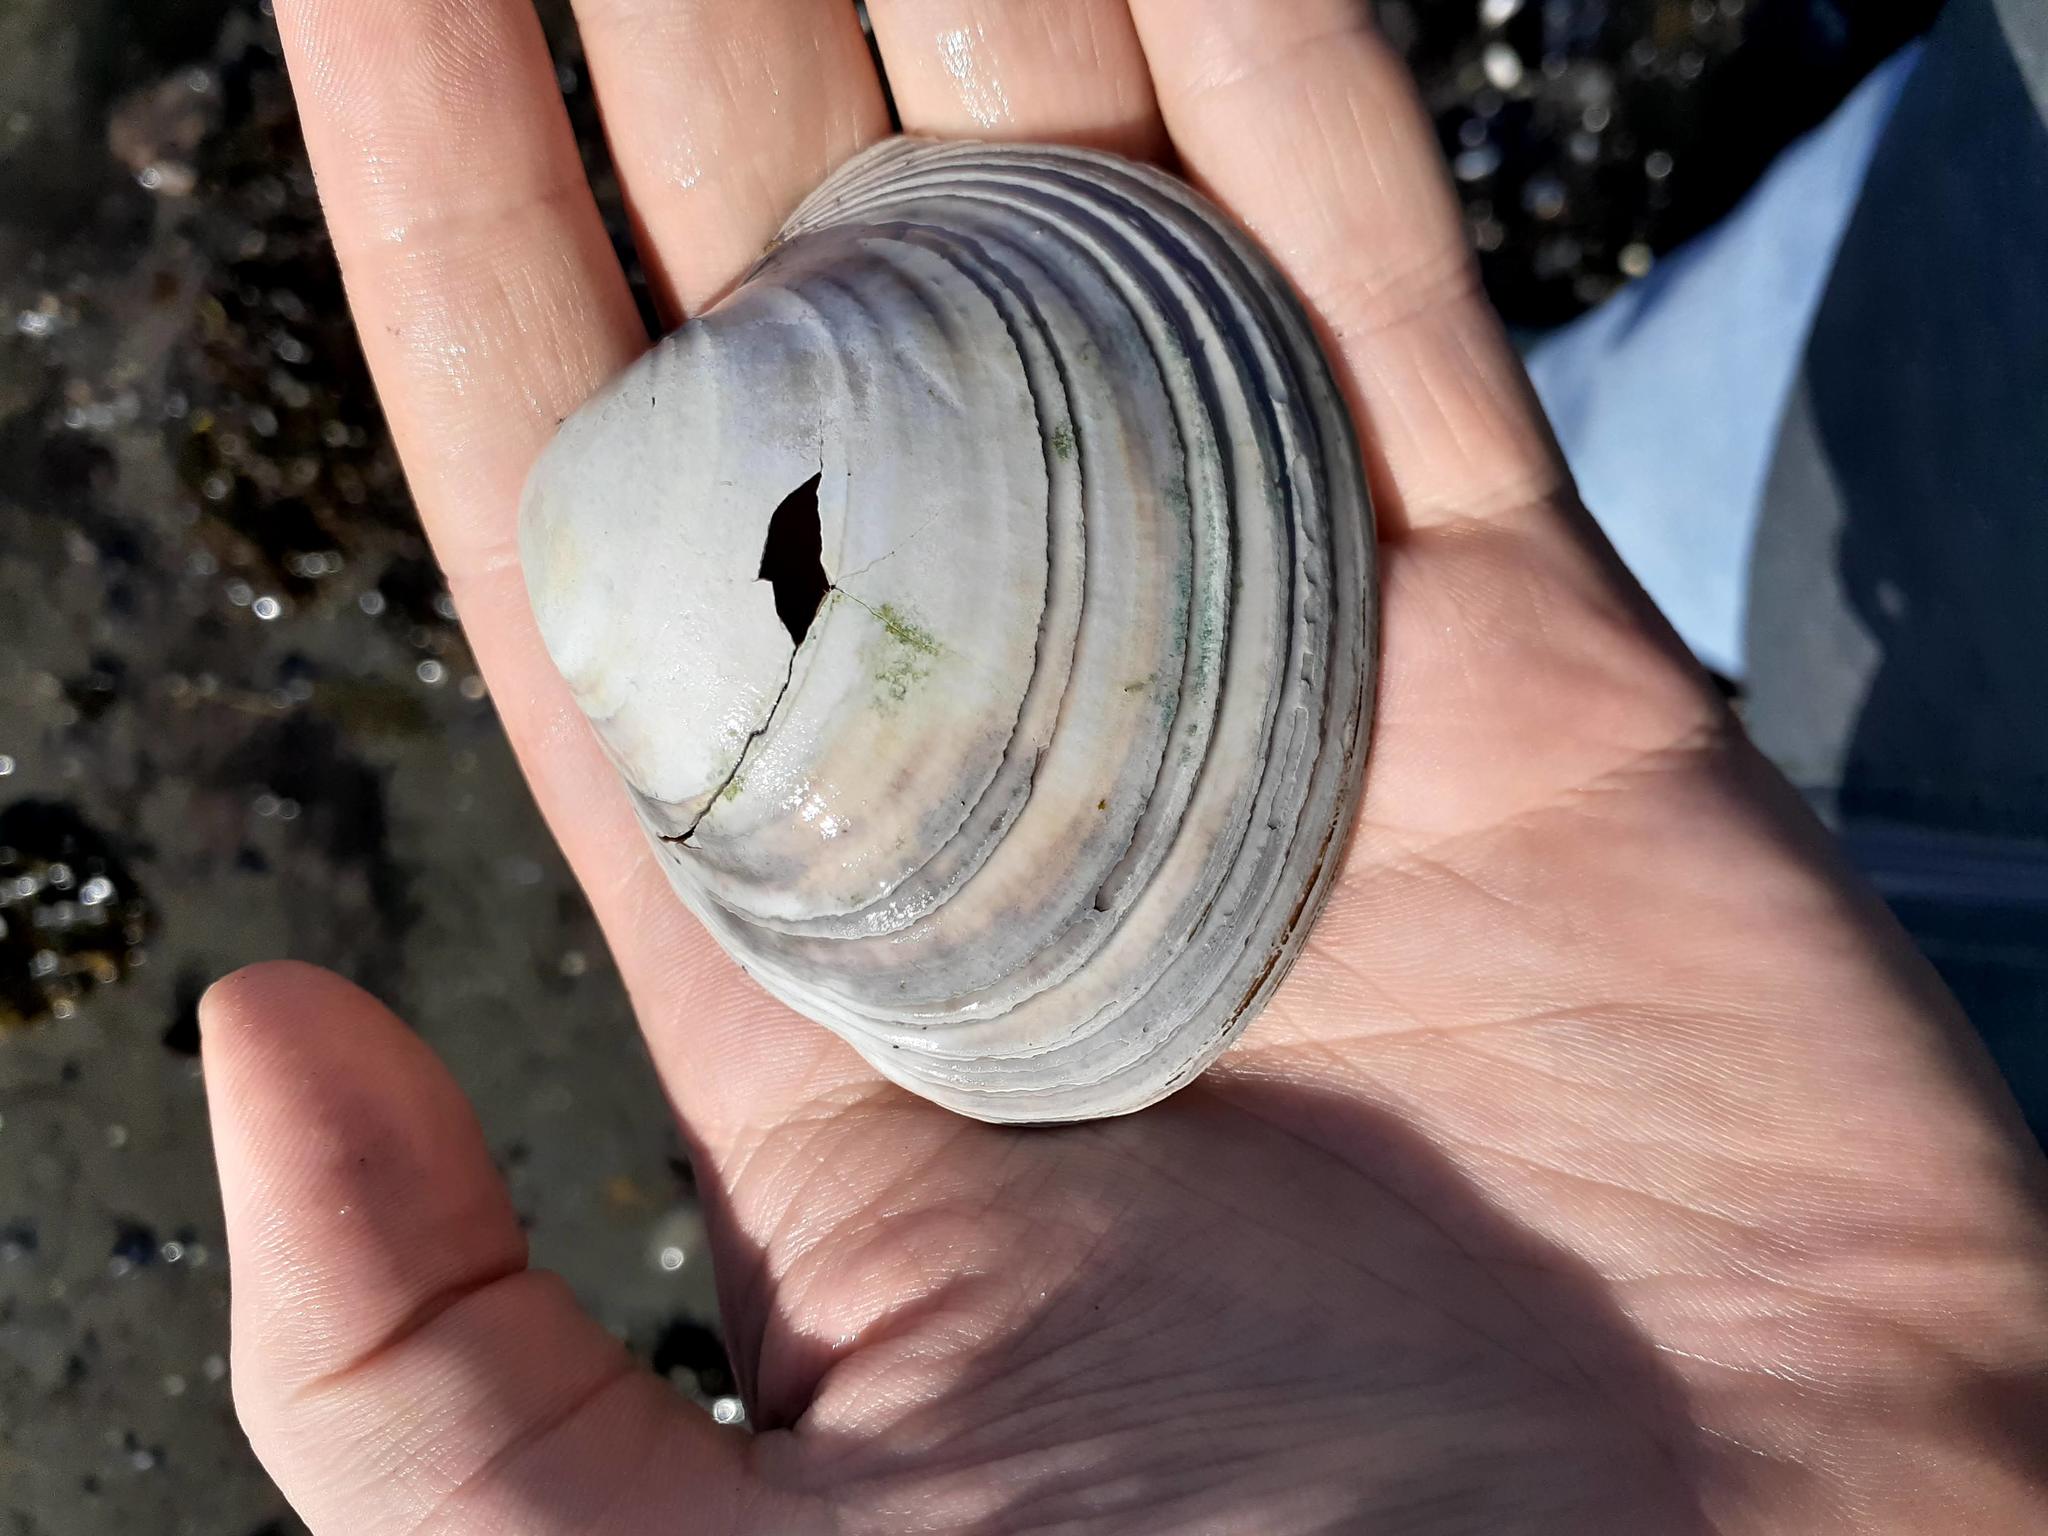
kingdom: Animalia
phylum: Mollusca
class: Bivalvia
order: Cardiida
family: Cardiidae
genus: Serripes
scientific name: Serripes groenlandicus
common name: Greenland cockle
